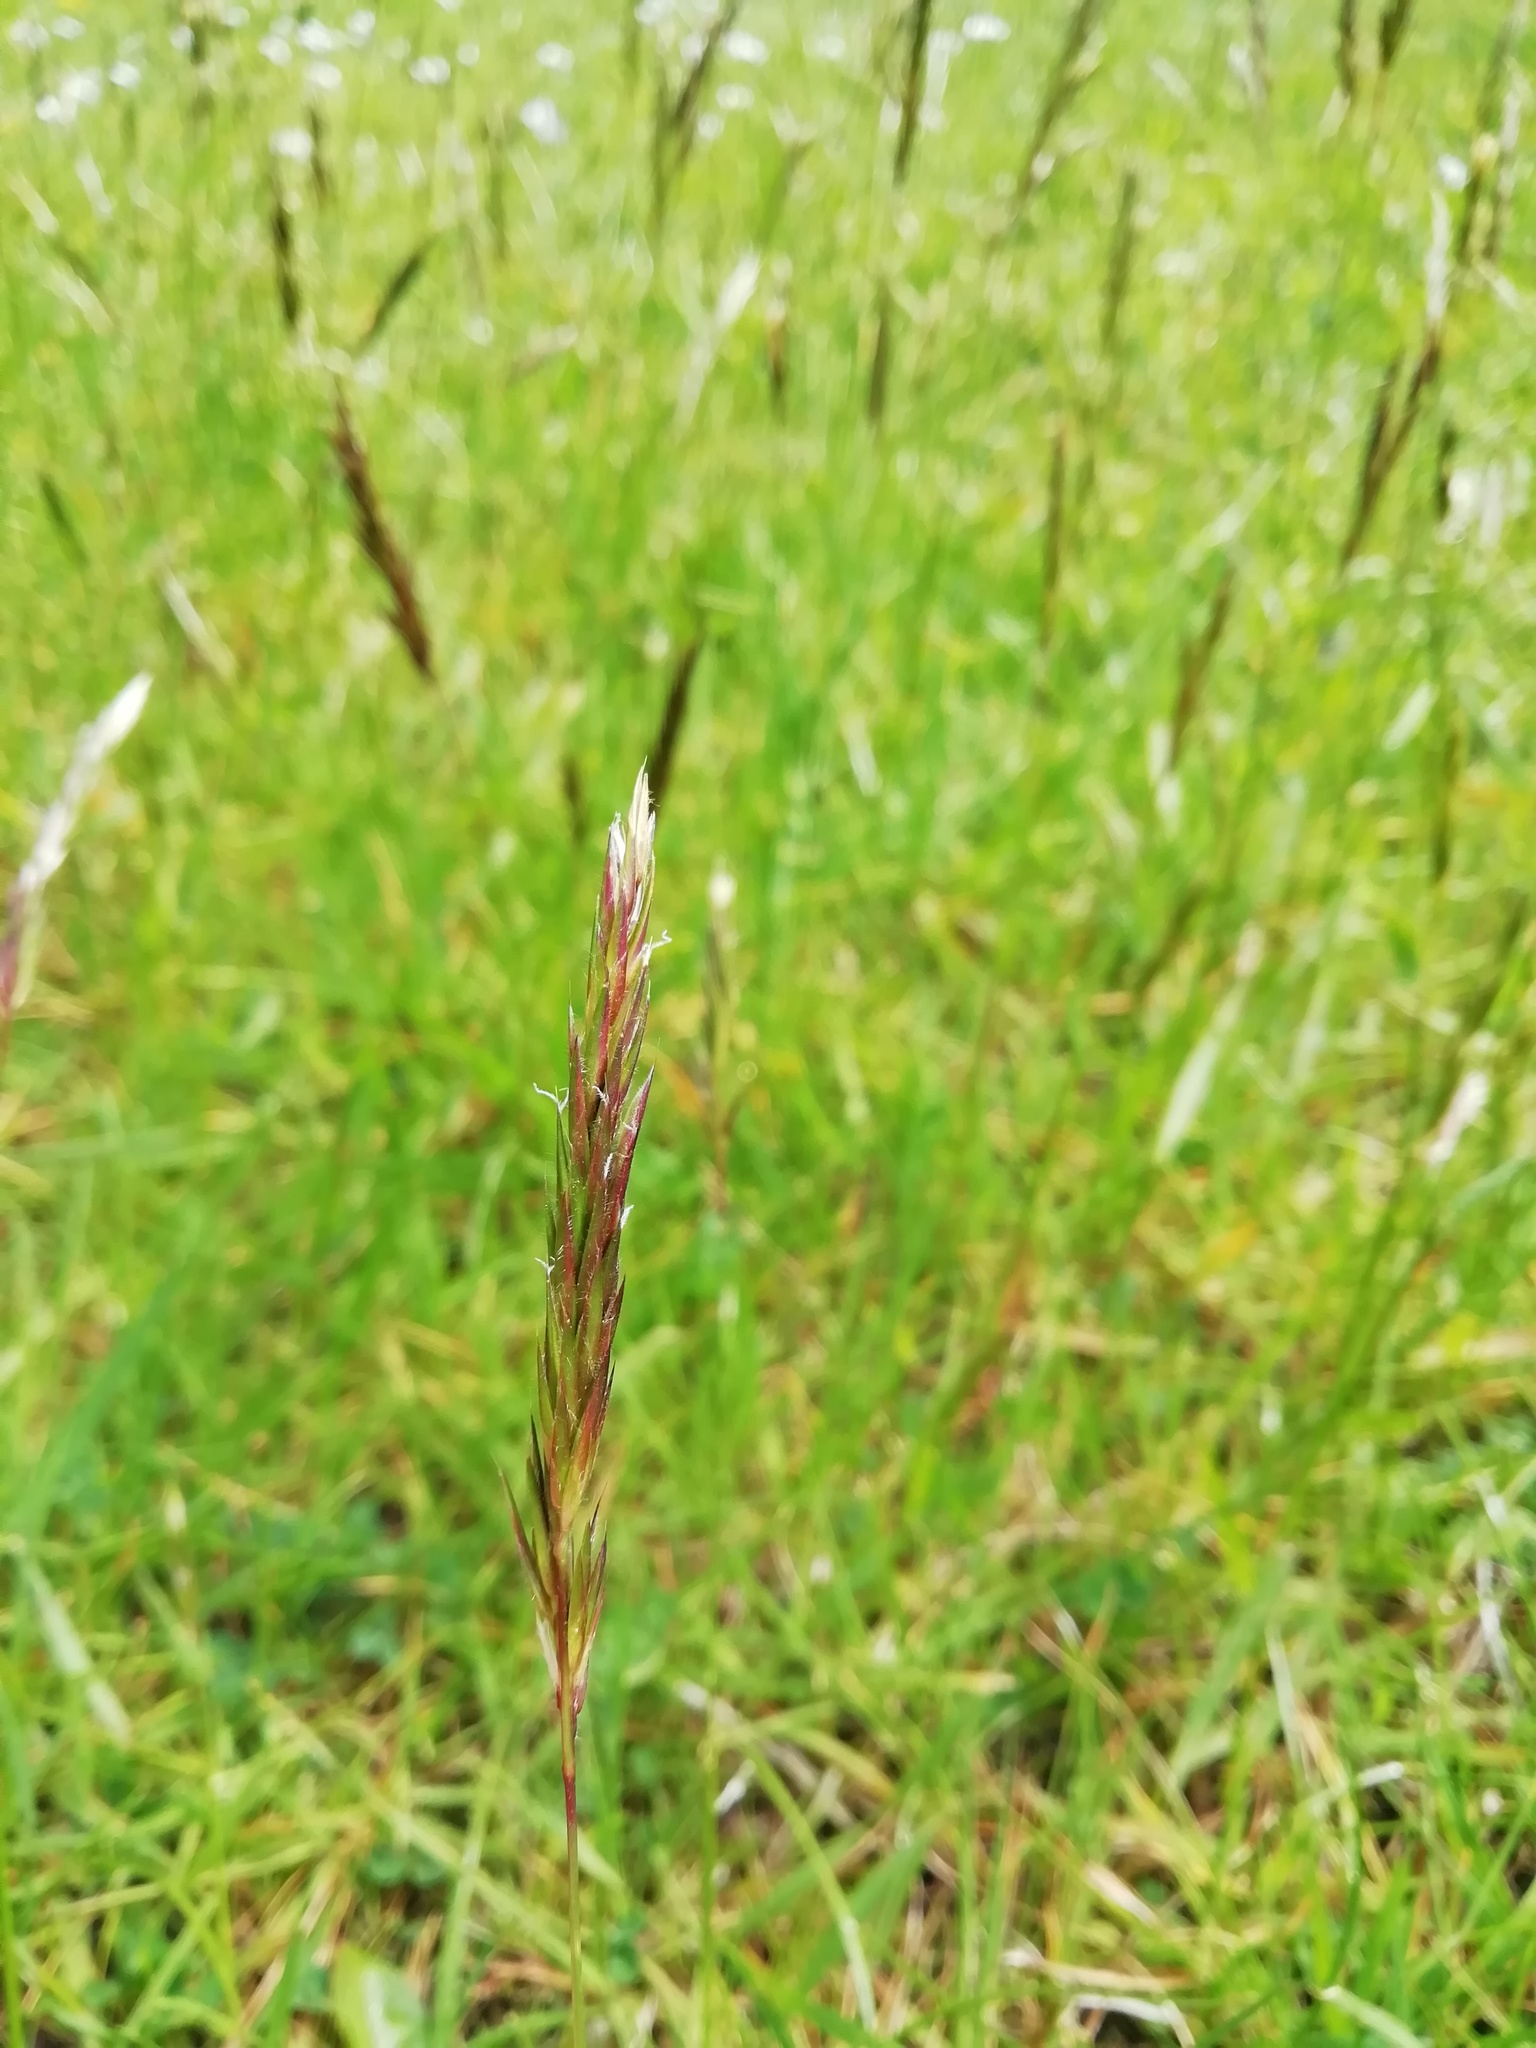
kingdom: Plantae
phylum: Tracheophyta
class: Liliopsida
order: Poales
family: Poaceae
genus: Anthoxanthum
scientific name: Anthoxanthum odoratum
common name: Sweet vernalgrass
